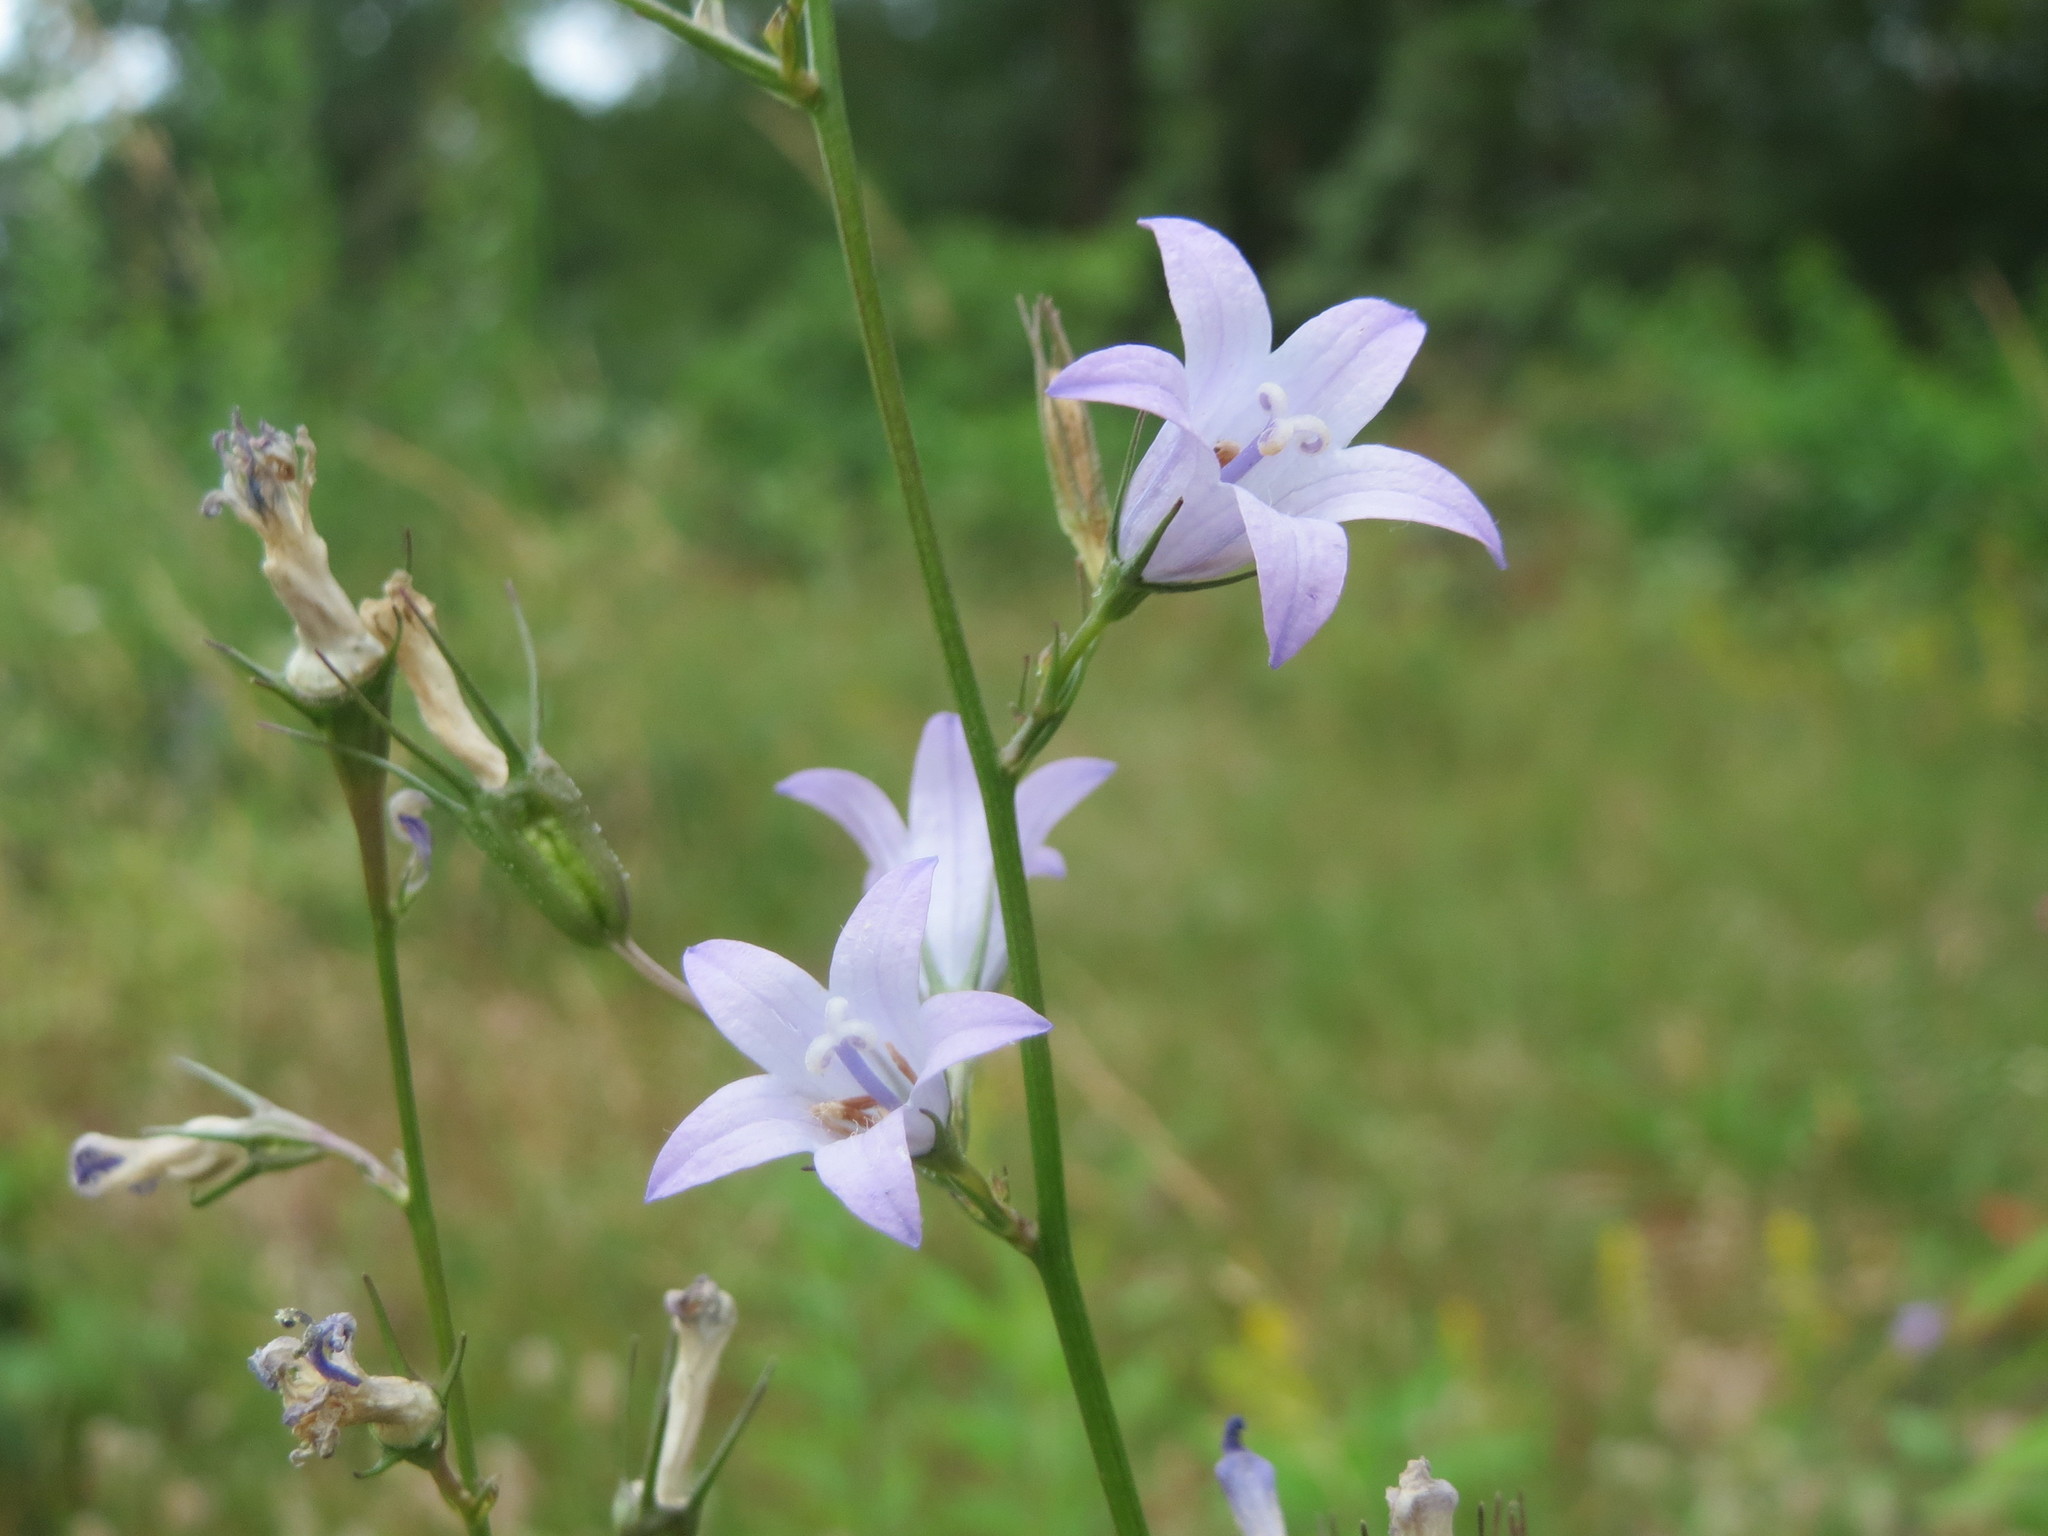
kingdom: Plantae
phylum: Tracheophyta
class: Magnoliopsida
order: Asterales
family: Campanulaceae
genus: Campanula
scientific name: Campanula rapunculus
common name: Rampion bellflower
